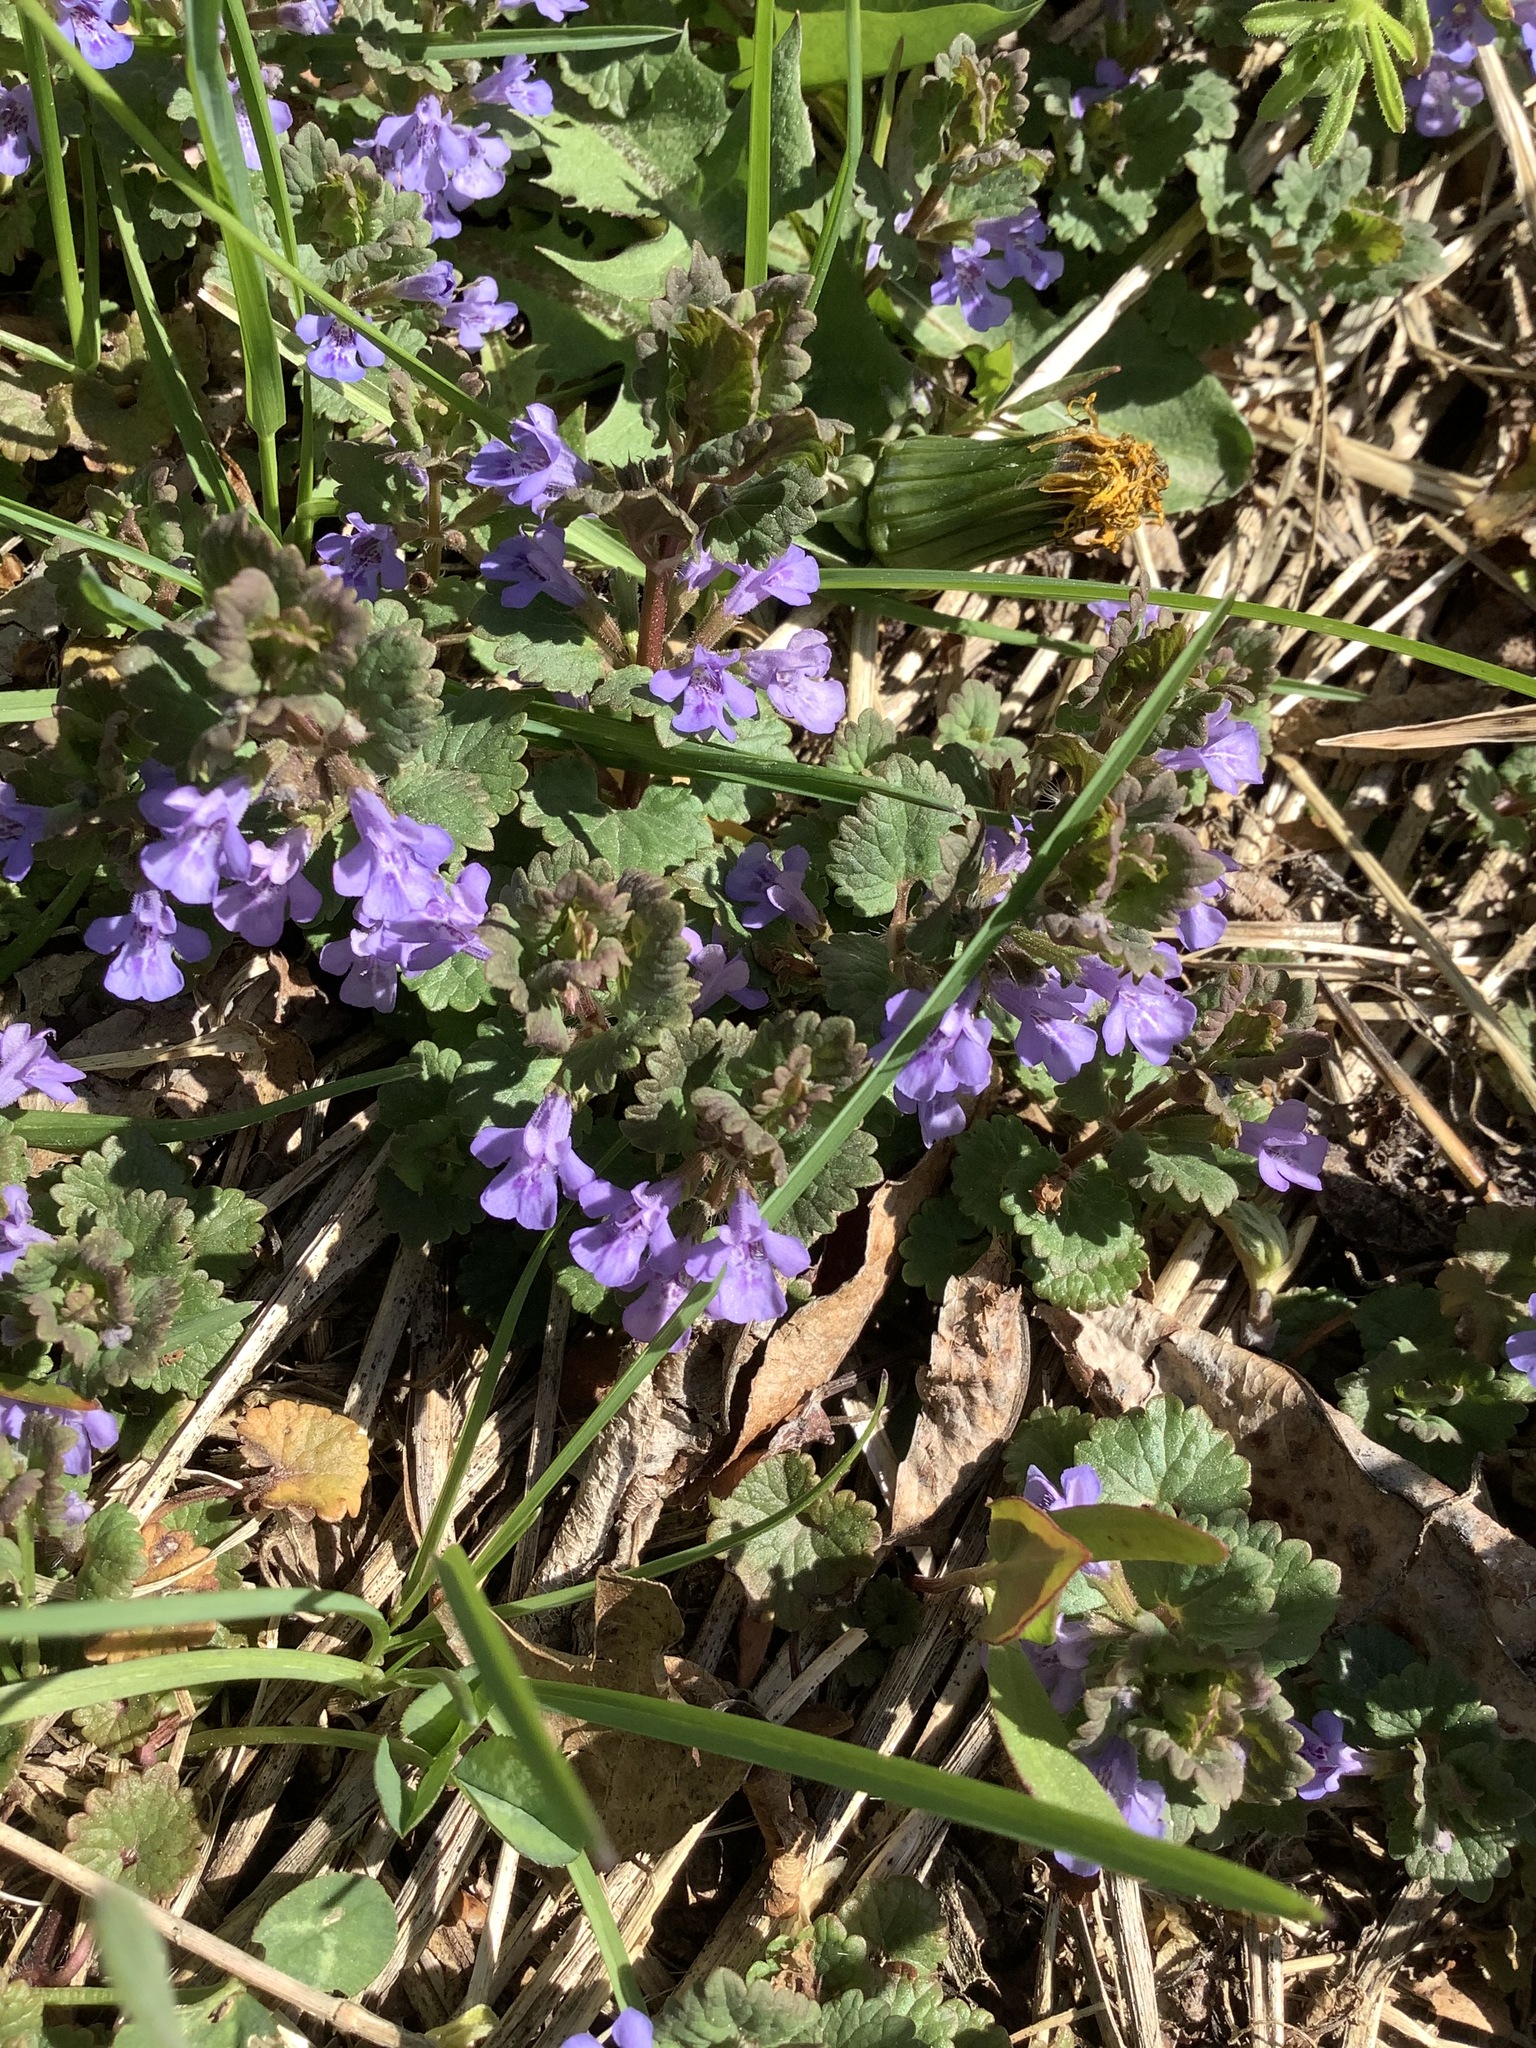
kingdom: Plantae
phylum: Tracheophyta
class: Magnoliopsida
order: Lamiales
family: Lamiaceae
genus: Glechoma
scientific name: Glechoma hederacea
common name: Ground ivy
